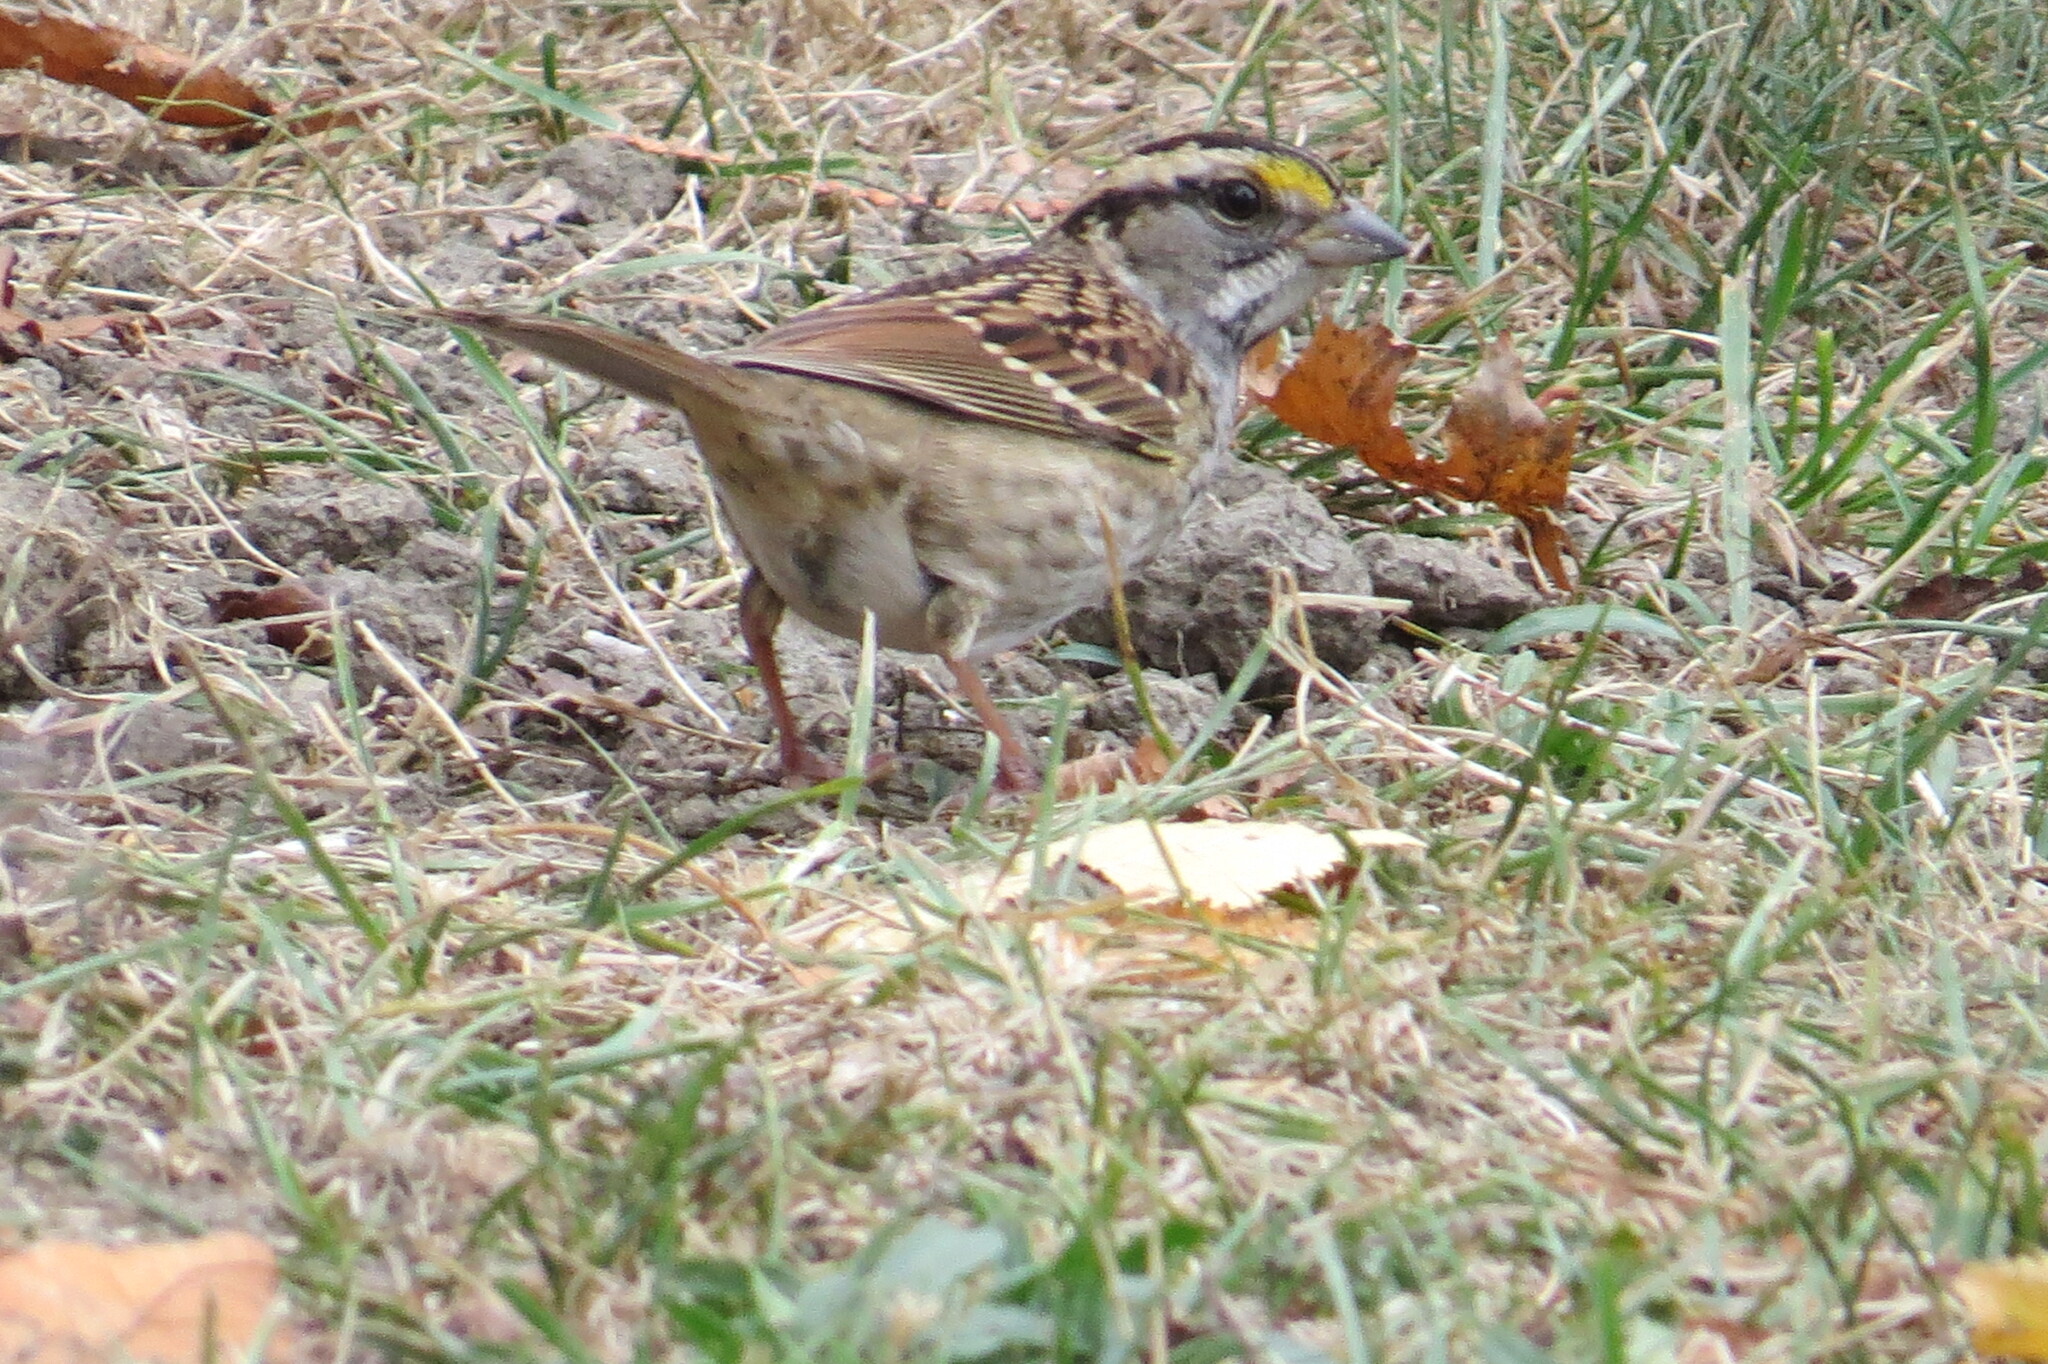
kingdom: Animalia
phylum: Chordata
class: Aves
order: Passeriformes
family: Passerellidae
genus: Zonotrichia
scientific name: Zonotrichia albicollis
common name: White-throated sparrow
